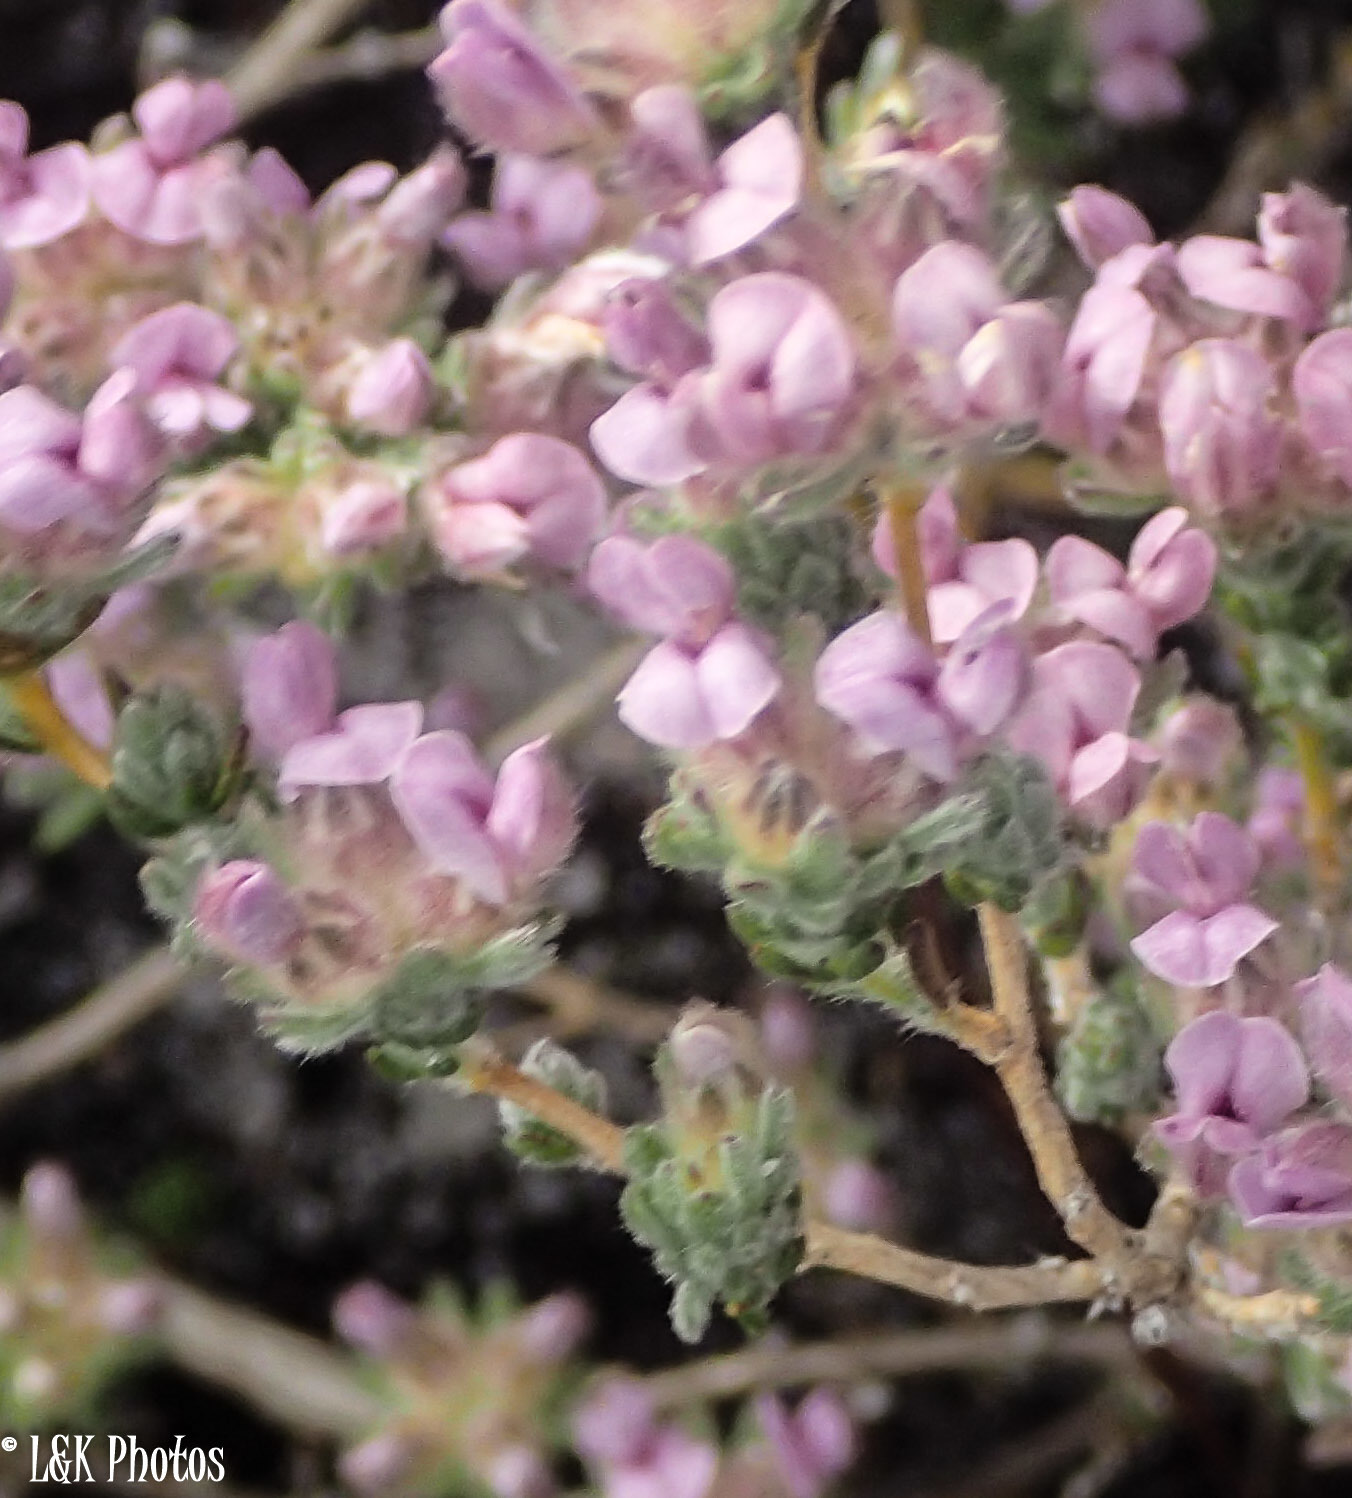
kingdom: Plantae
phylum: Tracheophyta
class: Magnoliopsida
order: Fabales
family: Fabaceae
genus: Aspalathus
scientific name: Aspalathus argyrella
